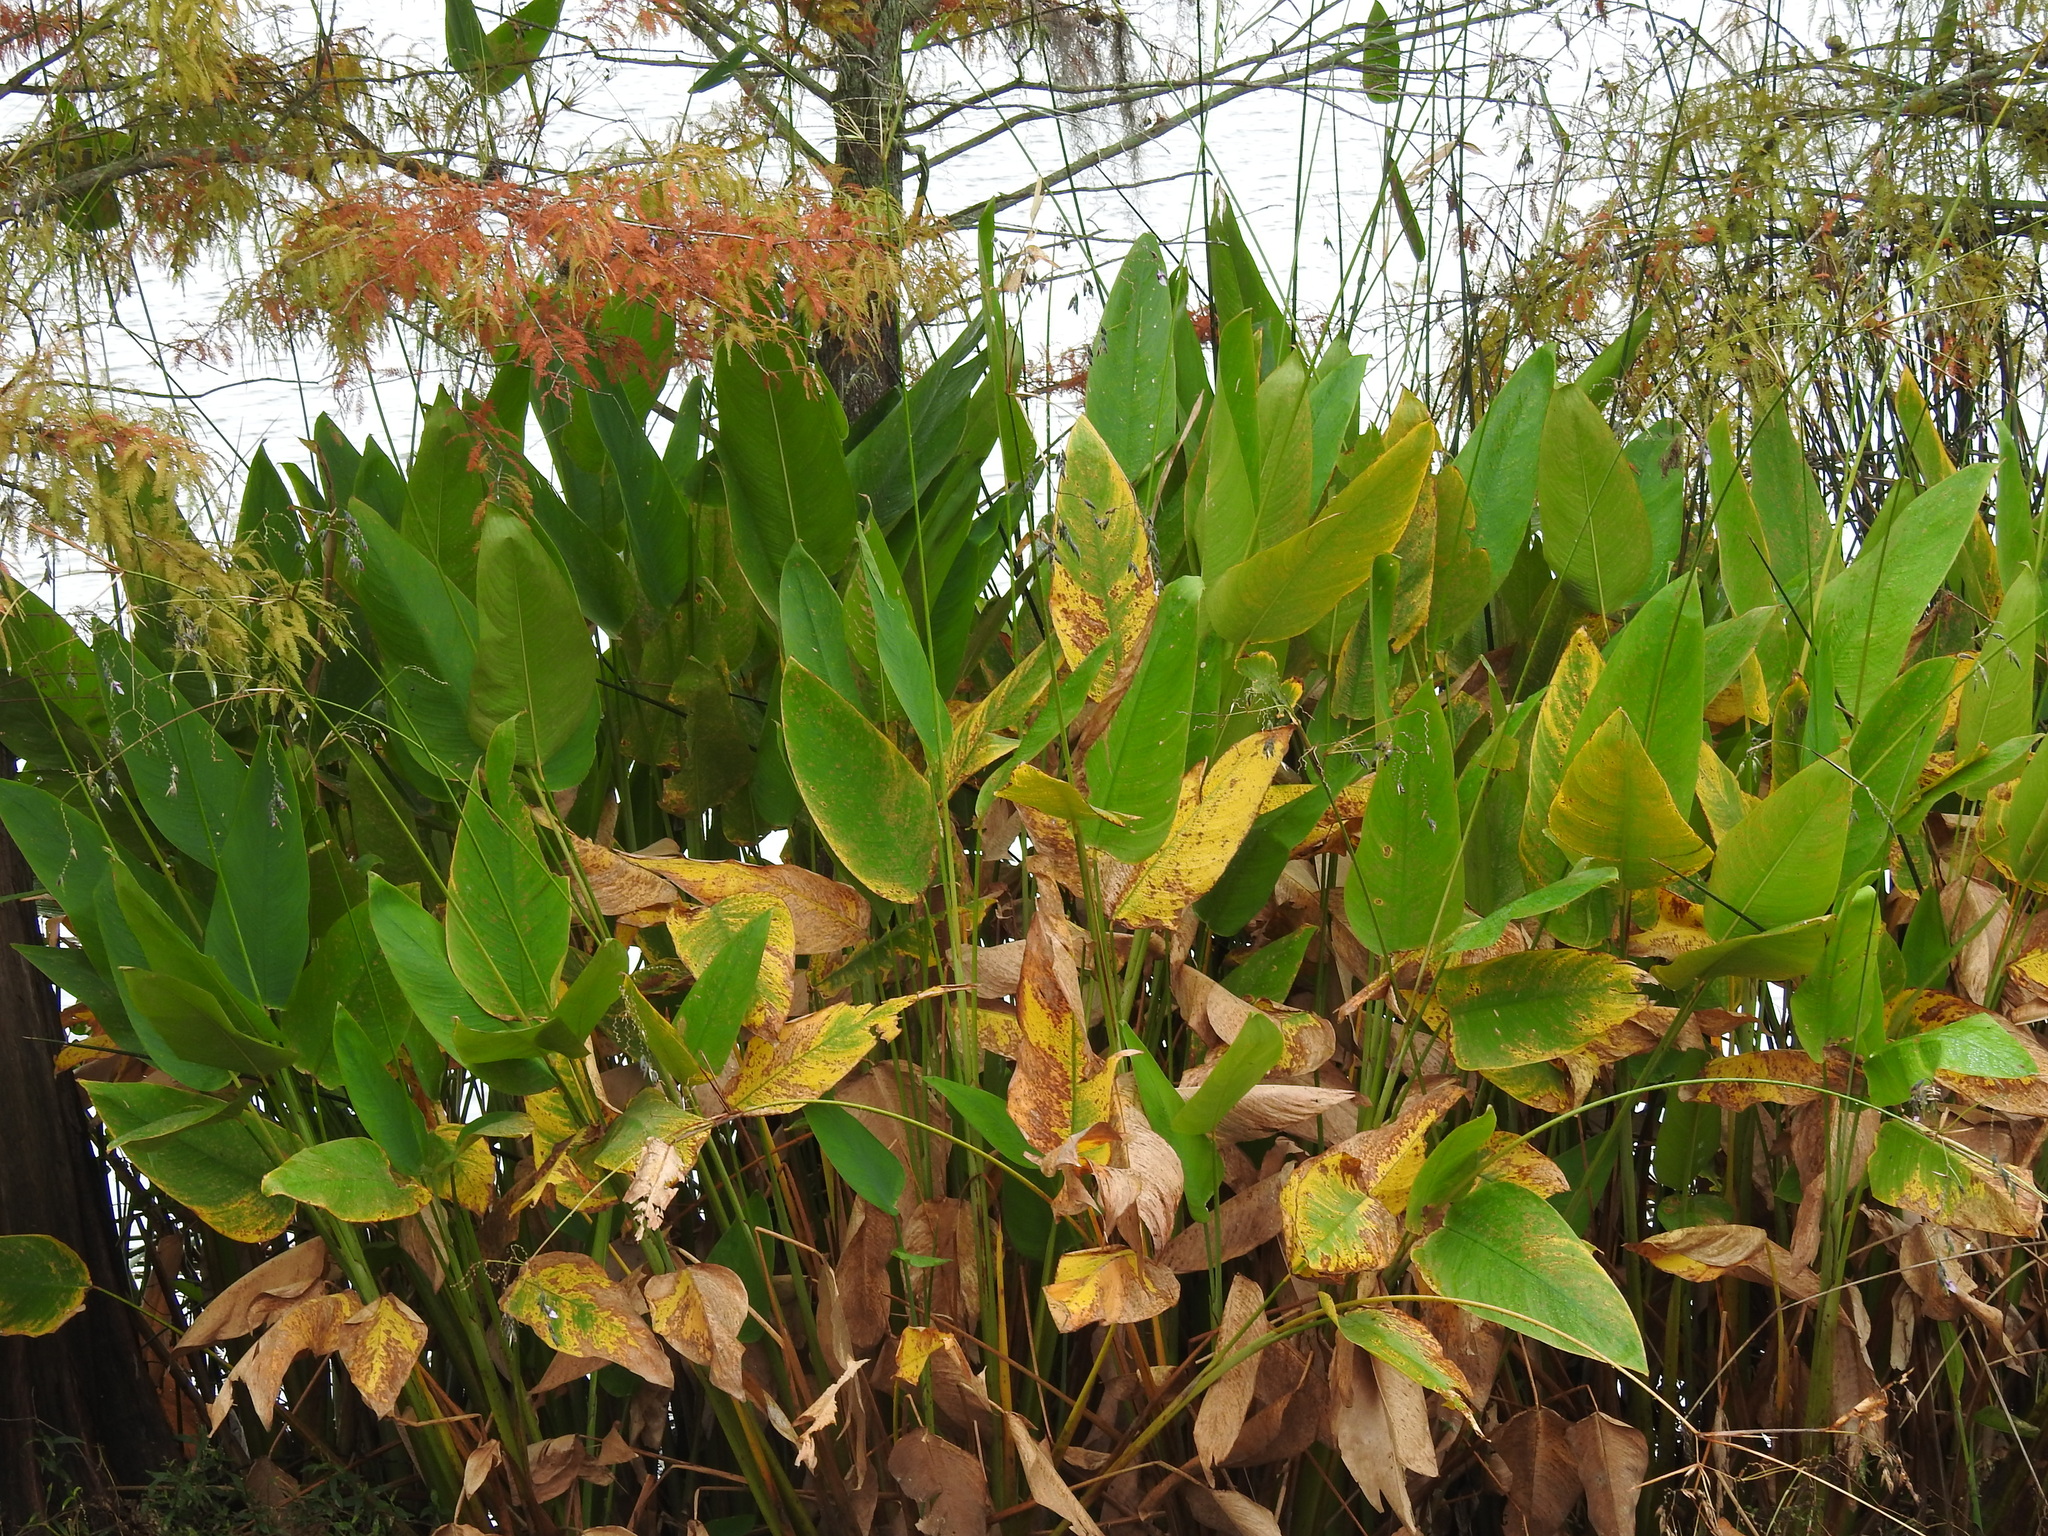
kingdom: Plantae
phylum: Tracheophyta
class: Liliopsida
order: Zingiberales
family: Marantaceae
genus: Thalia
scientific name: Thalia geniculata
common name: Arrowroot
